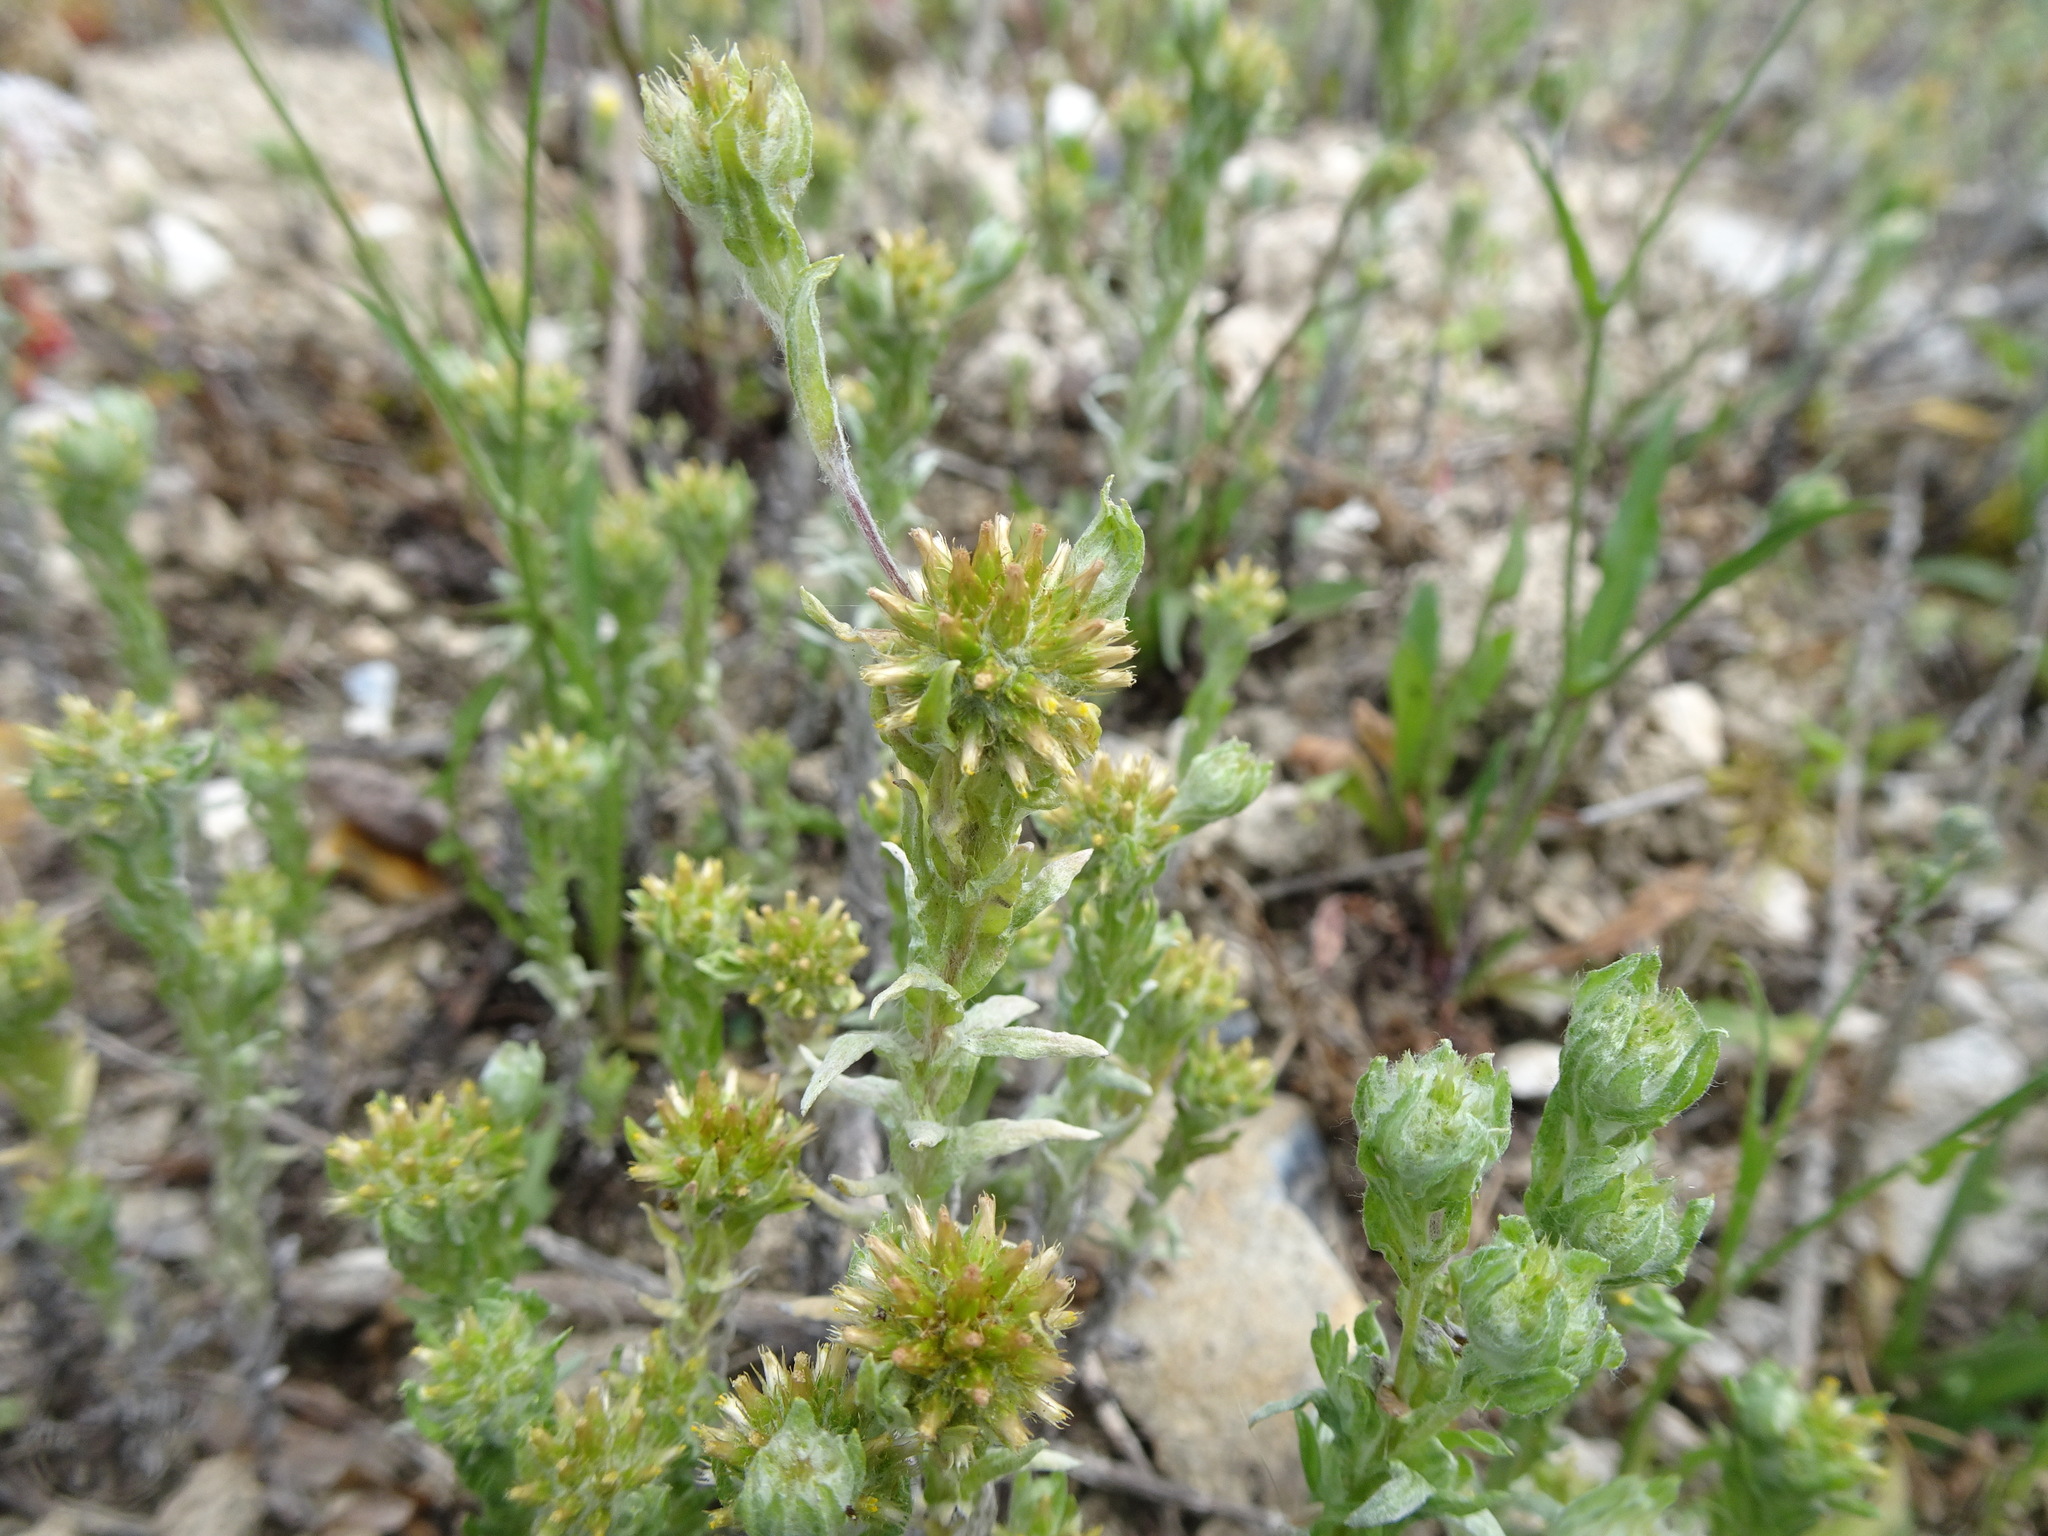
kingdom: Plantae
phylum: Tracheophyta
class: Magnoliopsida
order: Asterales
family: Asteraceae
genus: Filago
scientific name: Filago germanica
